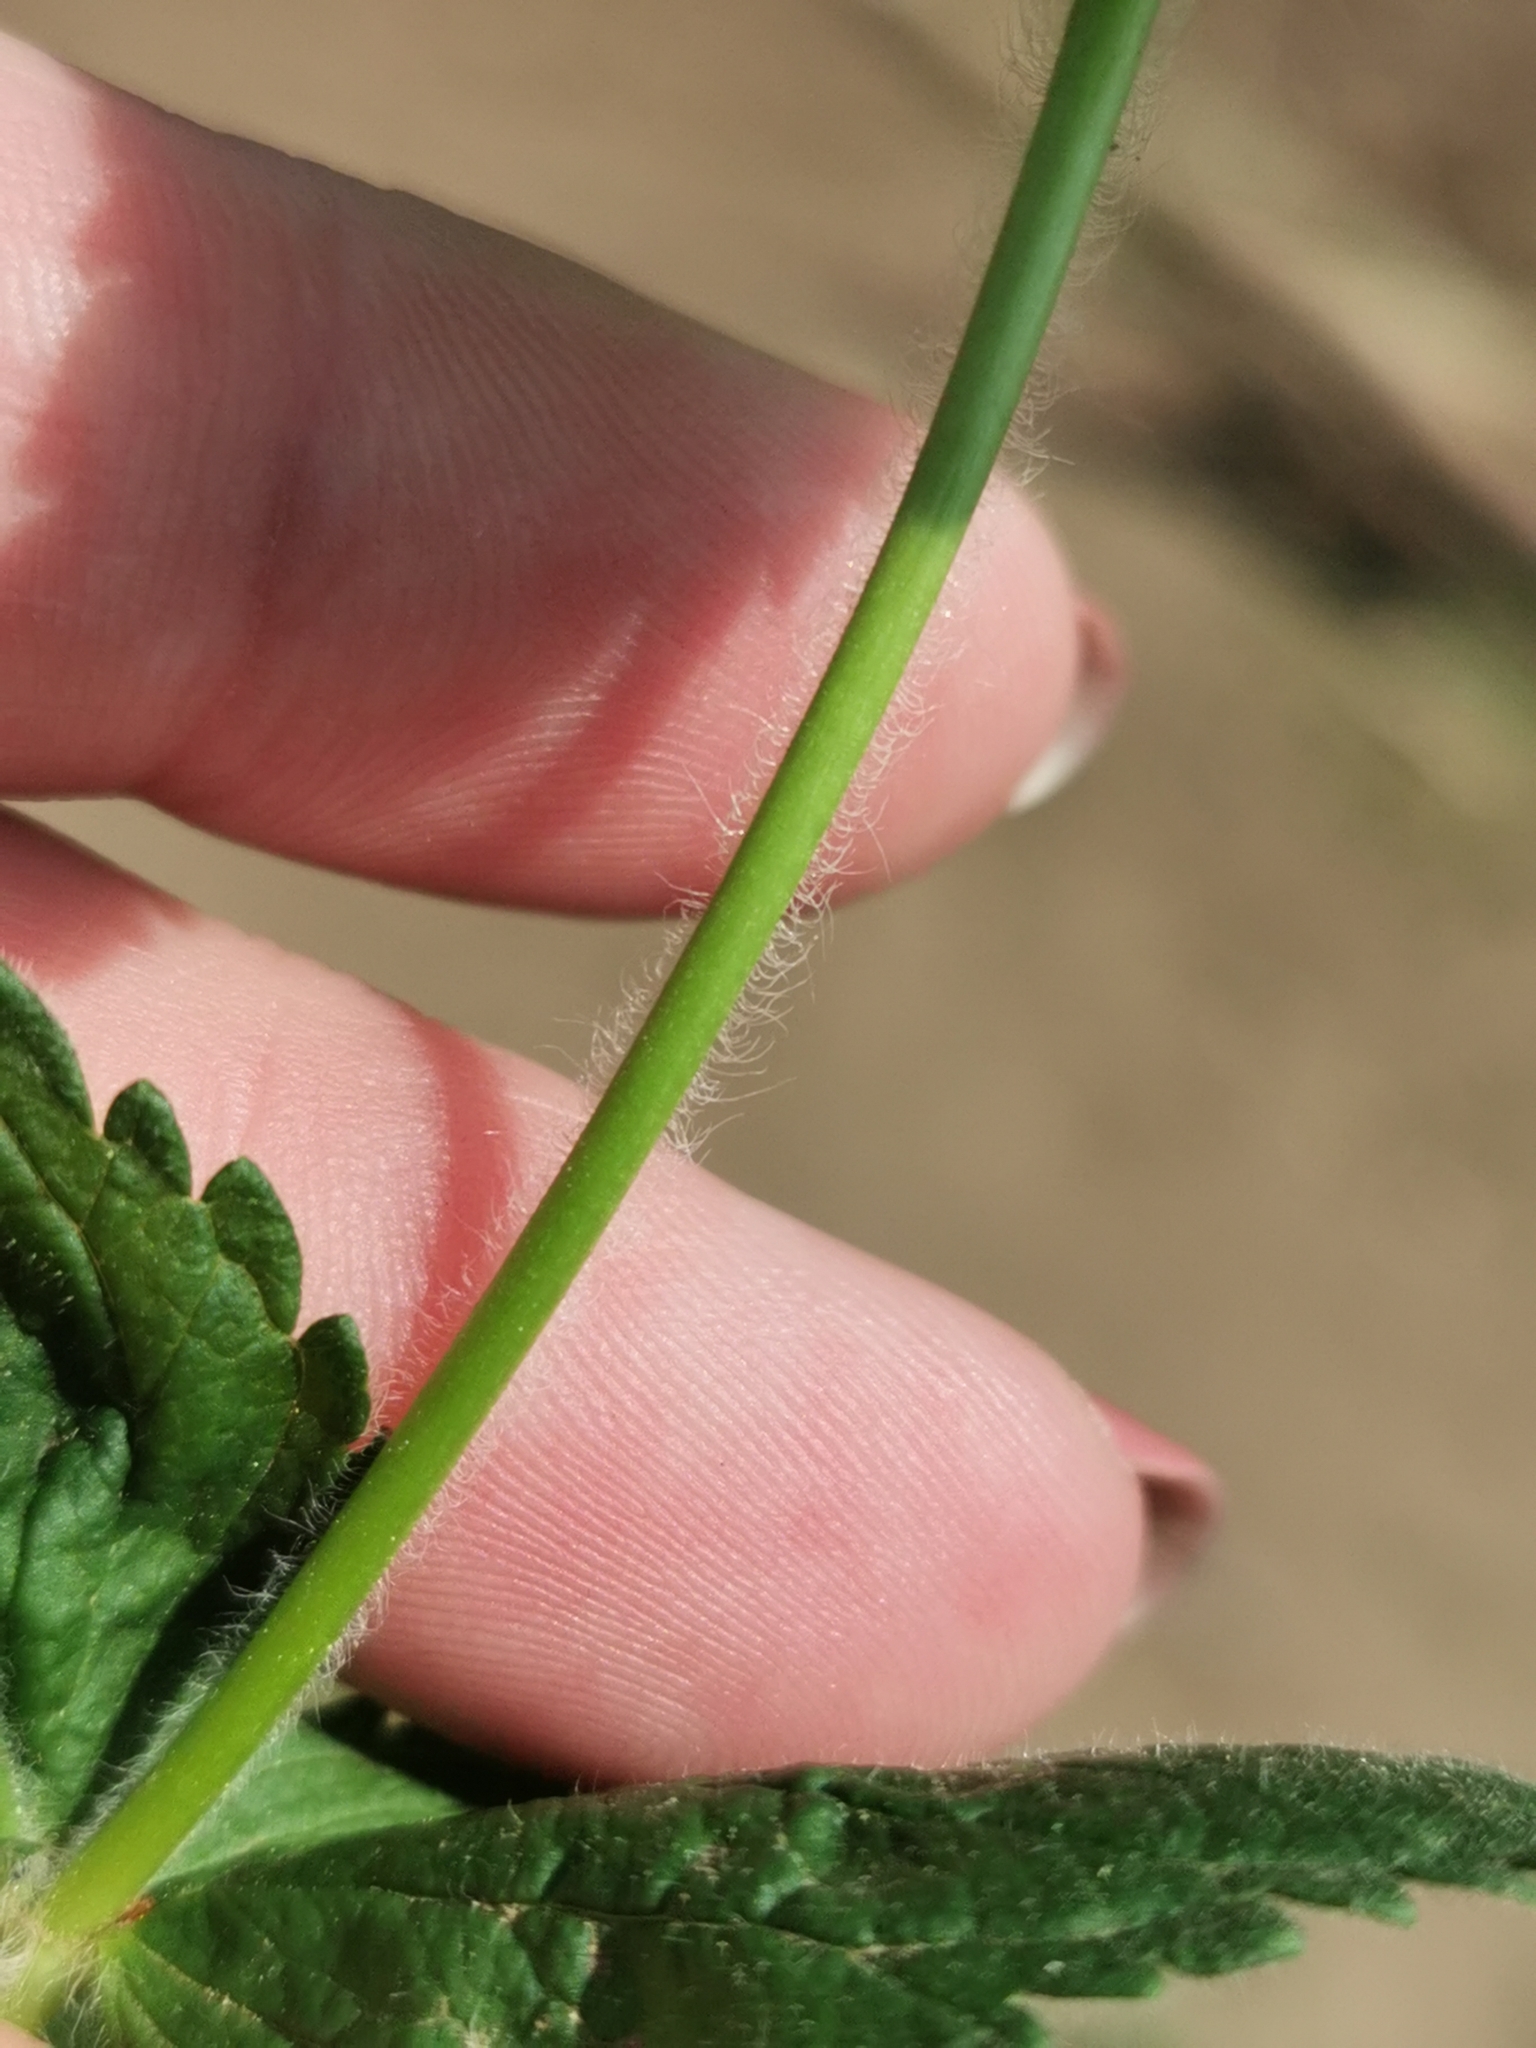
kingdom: Plantae
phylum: Tracheophyta
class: Magnoliopsida
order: Lamiales
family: Plantaginaceae
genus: Veronica
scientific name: Veronica chamaedrys
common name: Germander speedwell
